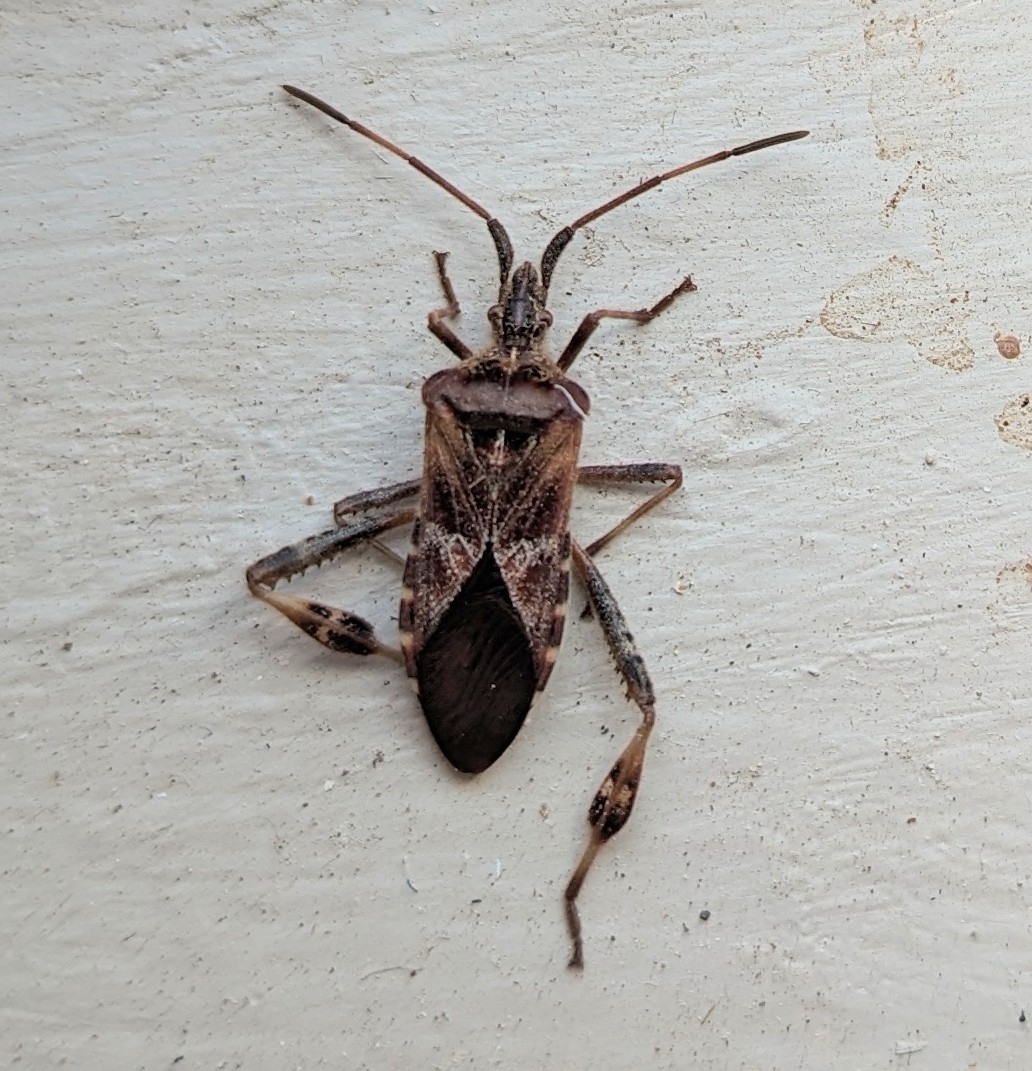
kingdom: Animalia
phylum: Arthropoda
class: Insecta
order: Hemiptera
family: Coreidae
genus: Leptoglossus
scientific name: Leptoglossus occidentalis
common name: Western conifer-seed bug
